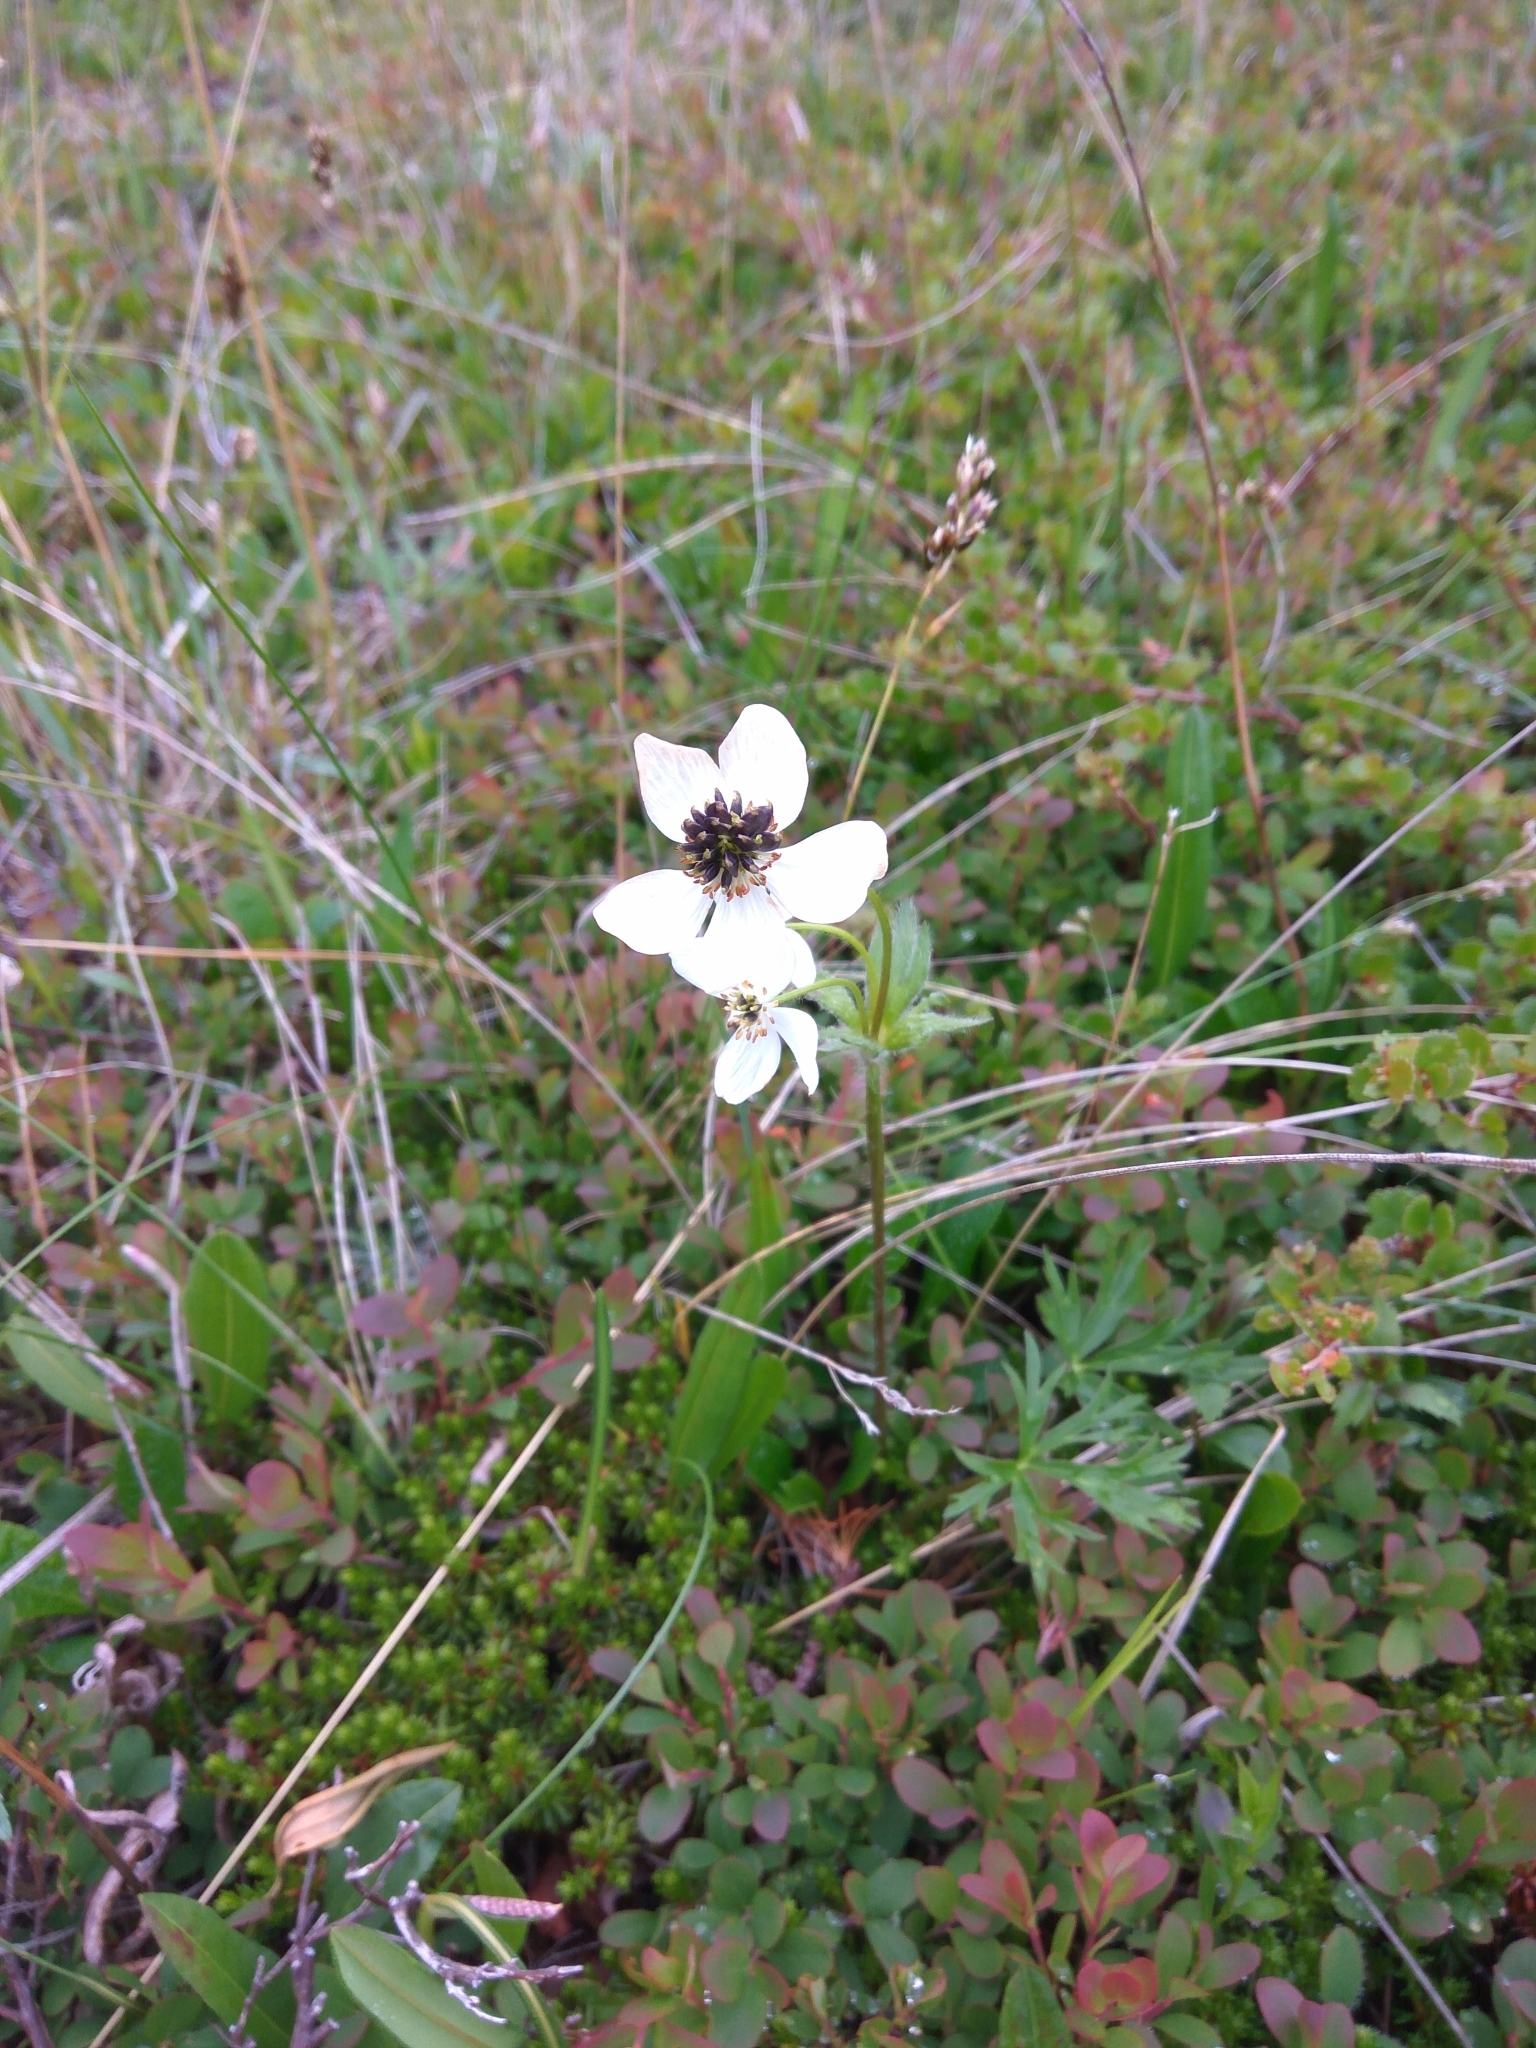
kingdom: Plantae
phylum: Tracheophyta
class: Magnoliopsida
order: Ranunculales
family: Ranunculaceae
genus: Anemonastrum
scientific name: Anemonastrum narcissiflorum
